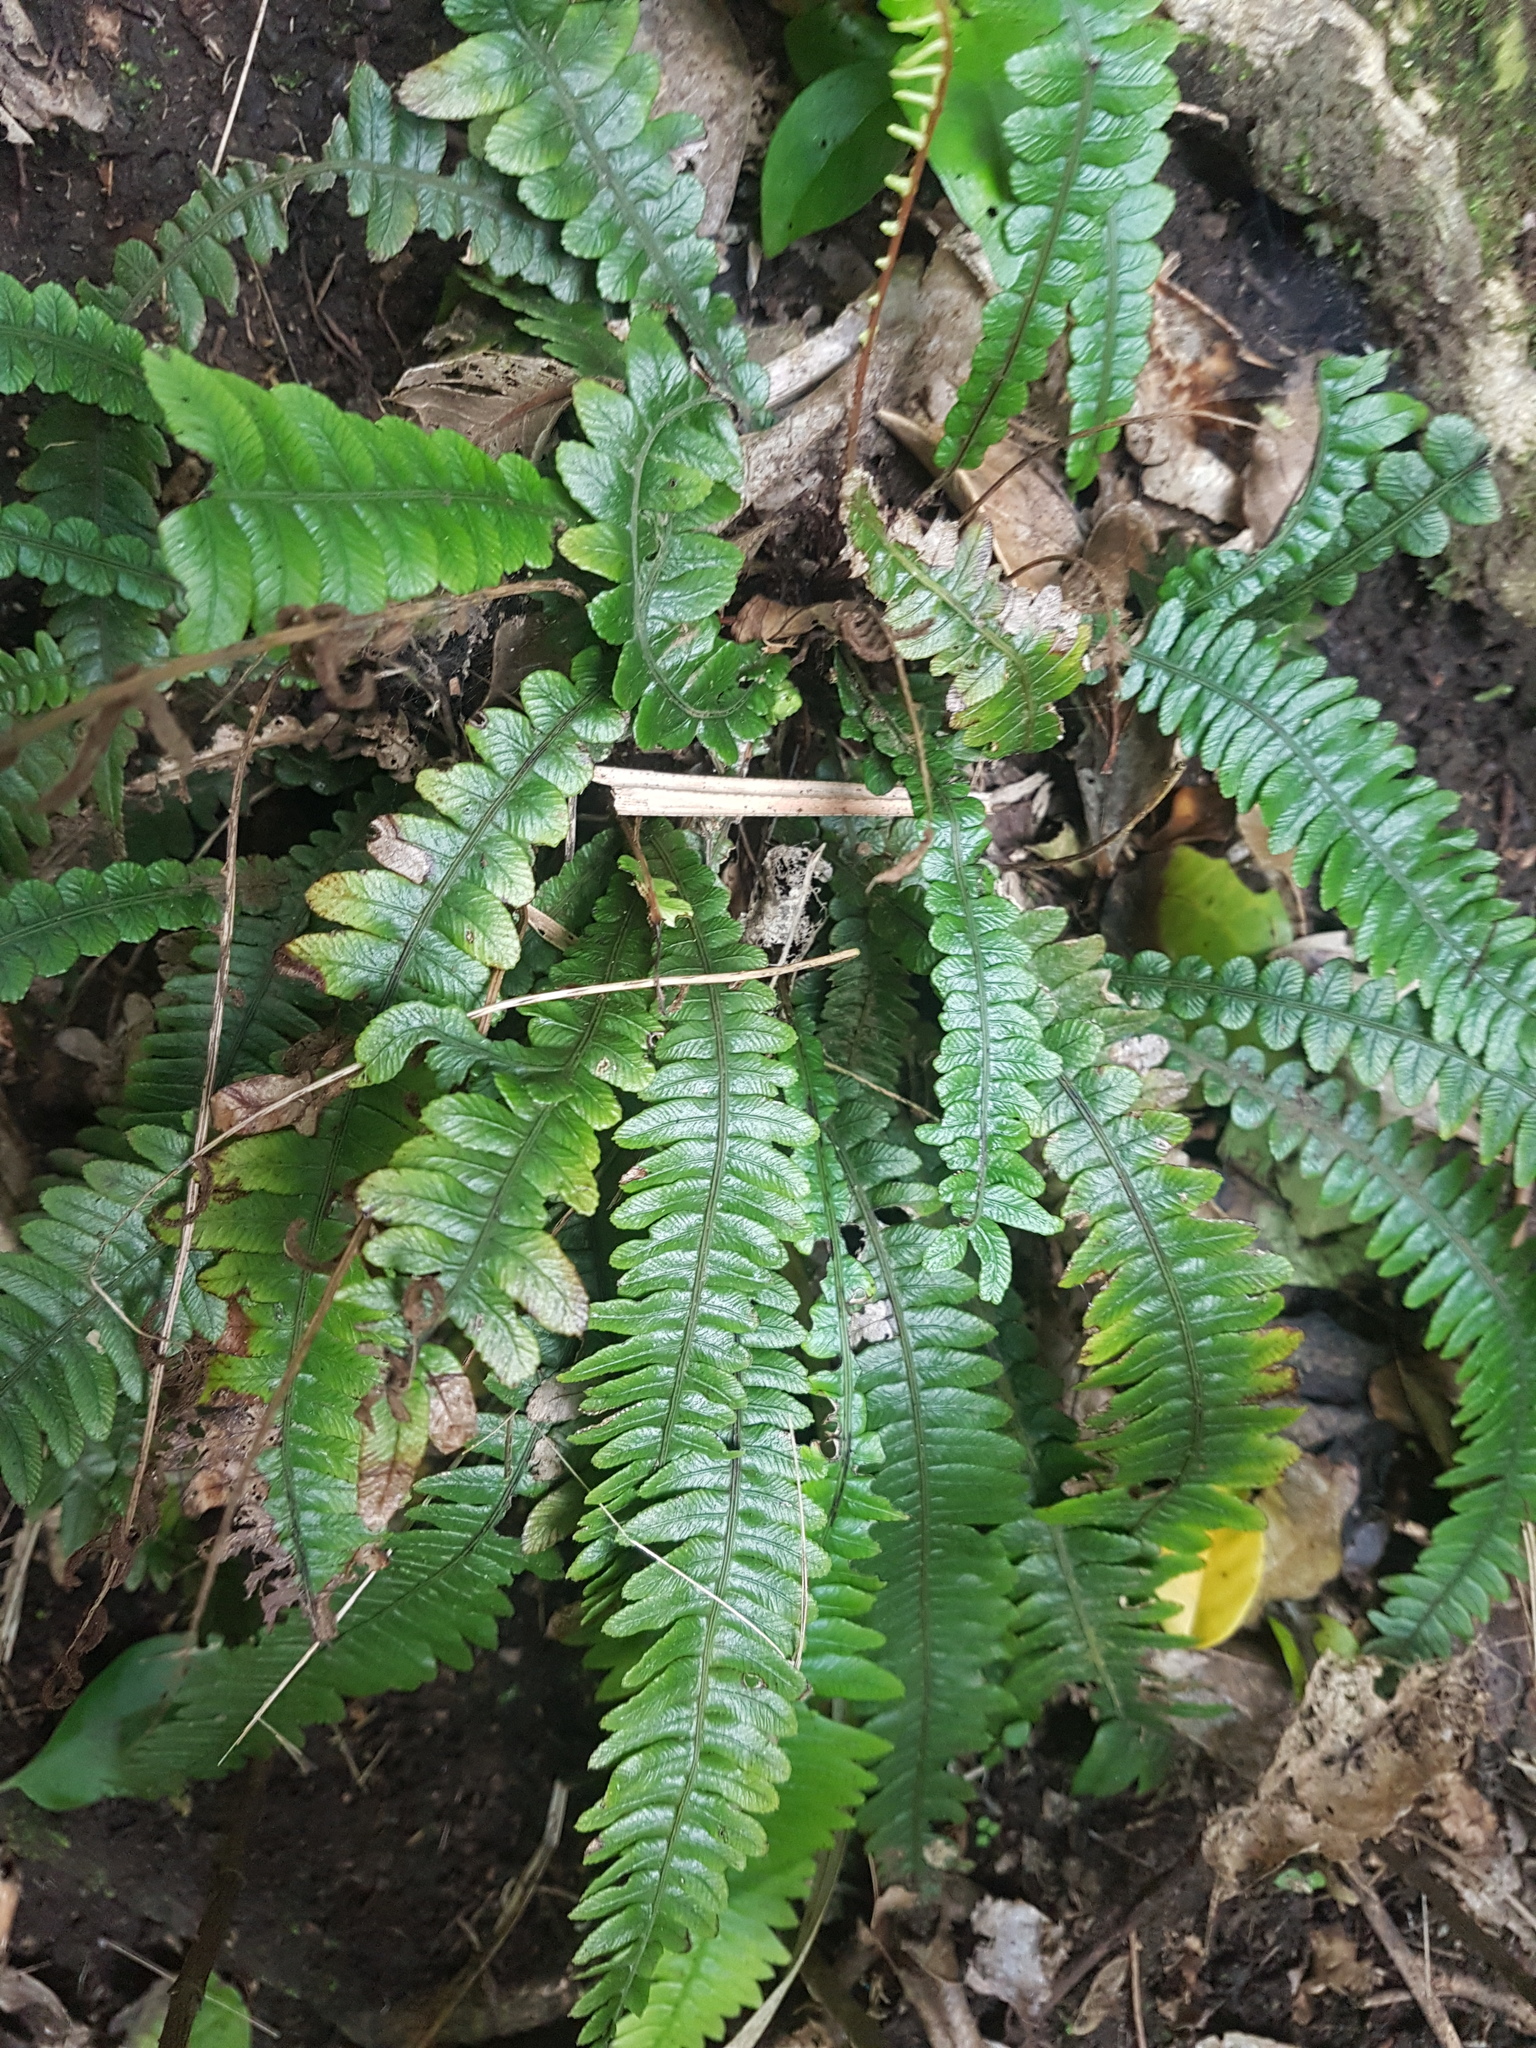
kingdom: Plantae
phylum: Tracheophyta
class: Polypodiopsida
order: Polypodiales
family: Blechnaceae
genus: Austroblechnum
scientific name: Austroblechnum lanceolatum
